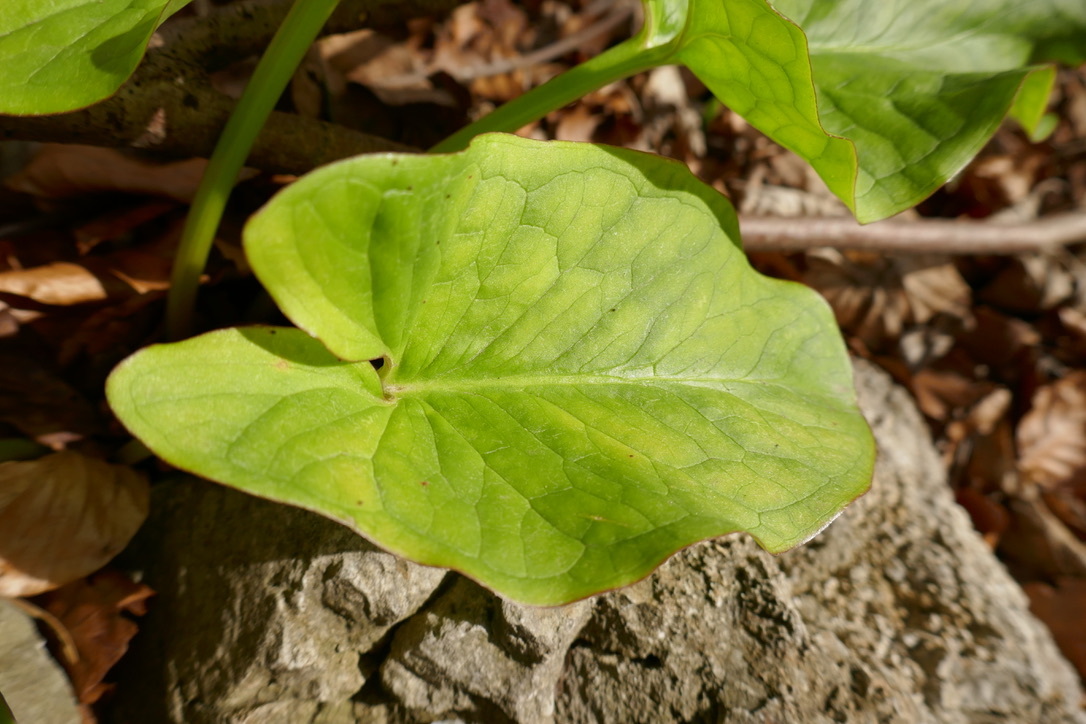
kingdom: Plantae
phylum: Tracheophyta
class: Liliopsida
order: Alismatales
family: Araceae
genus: Arum
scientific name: Arum cylindraceum
